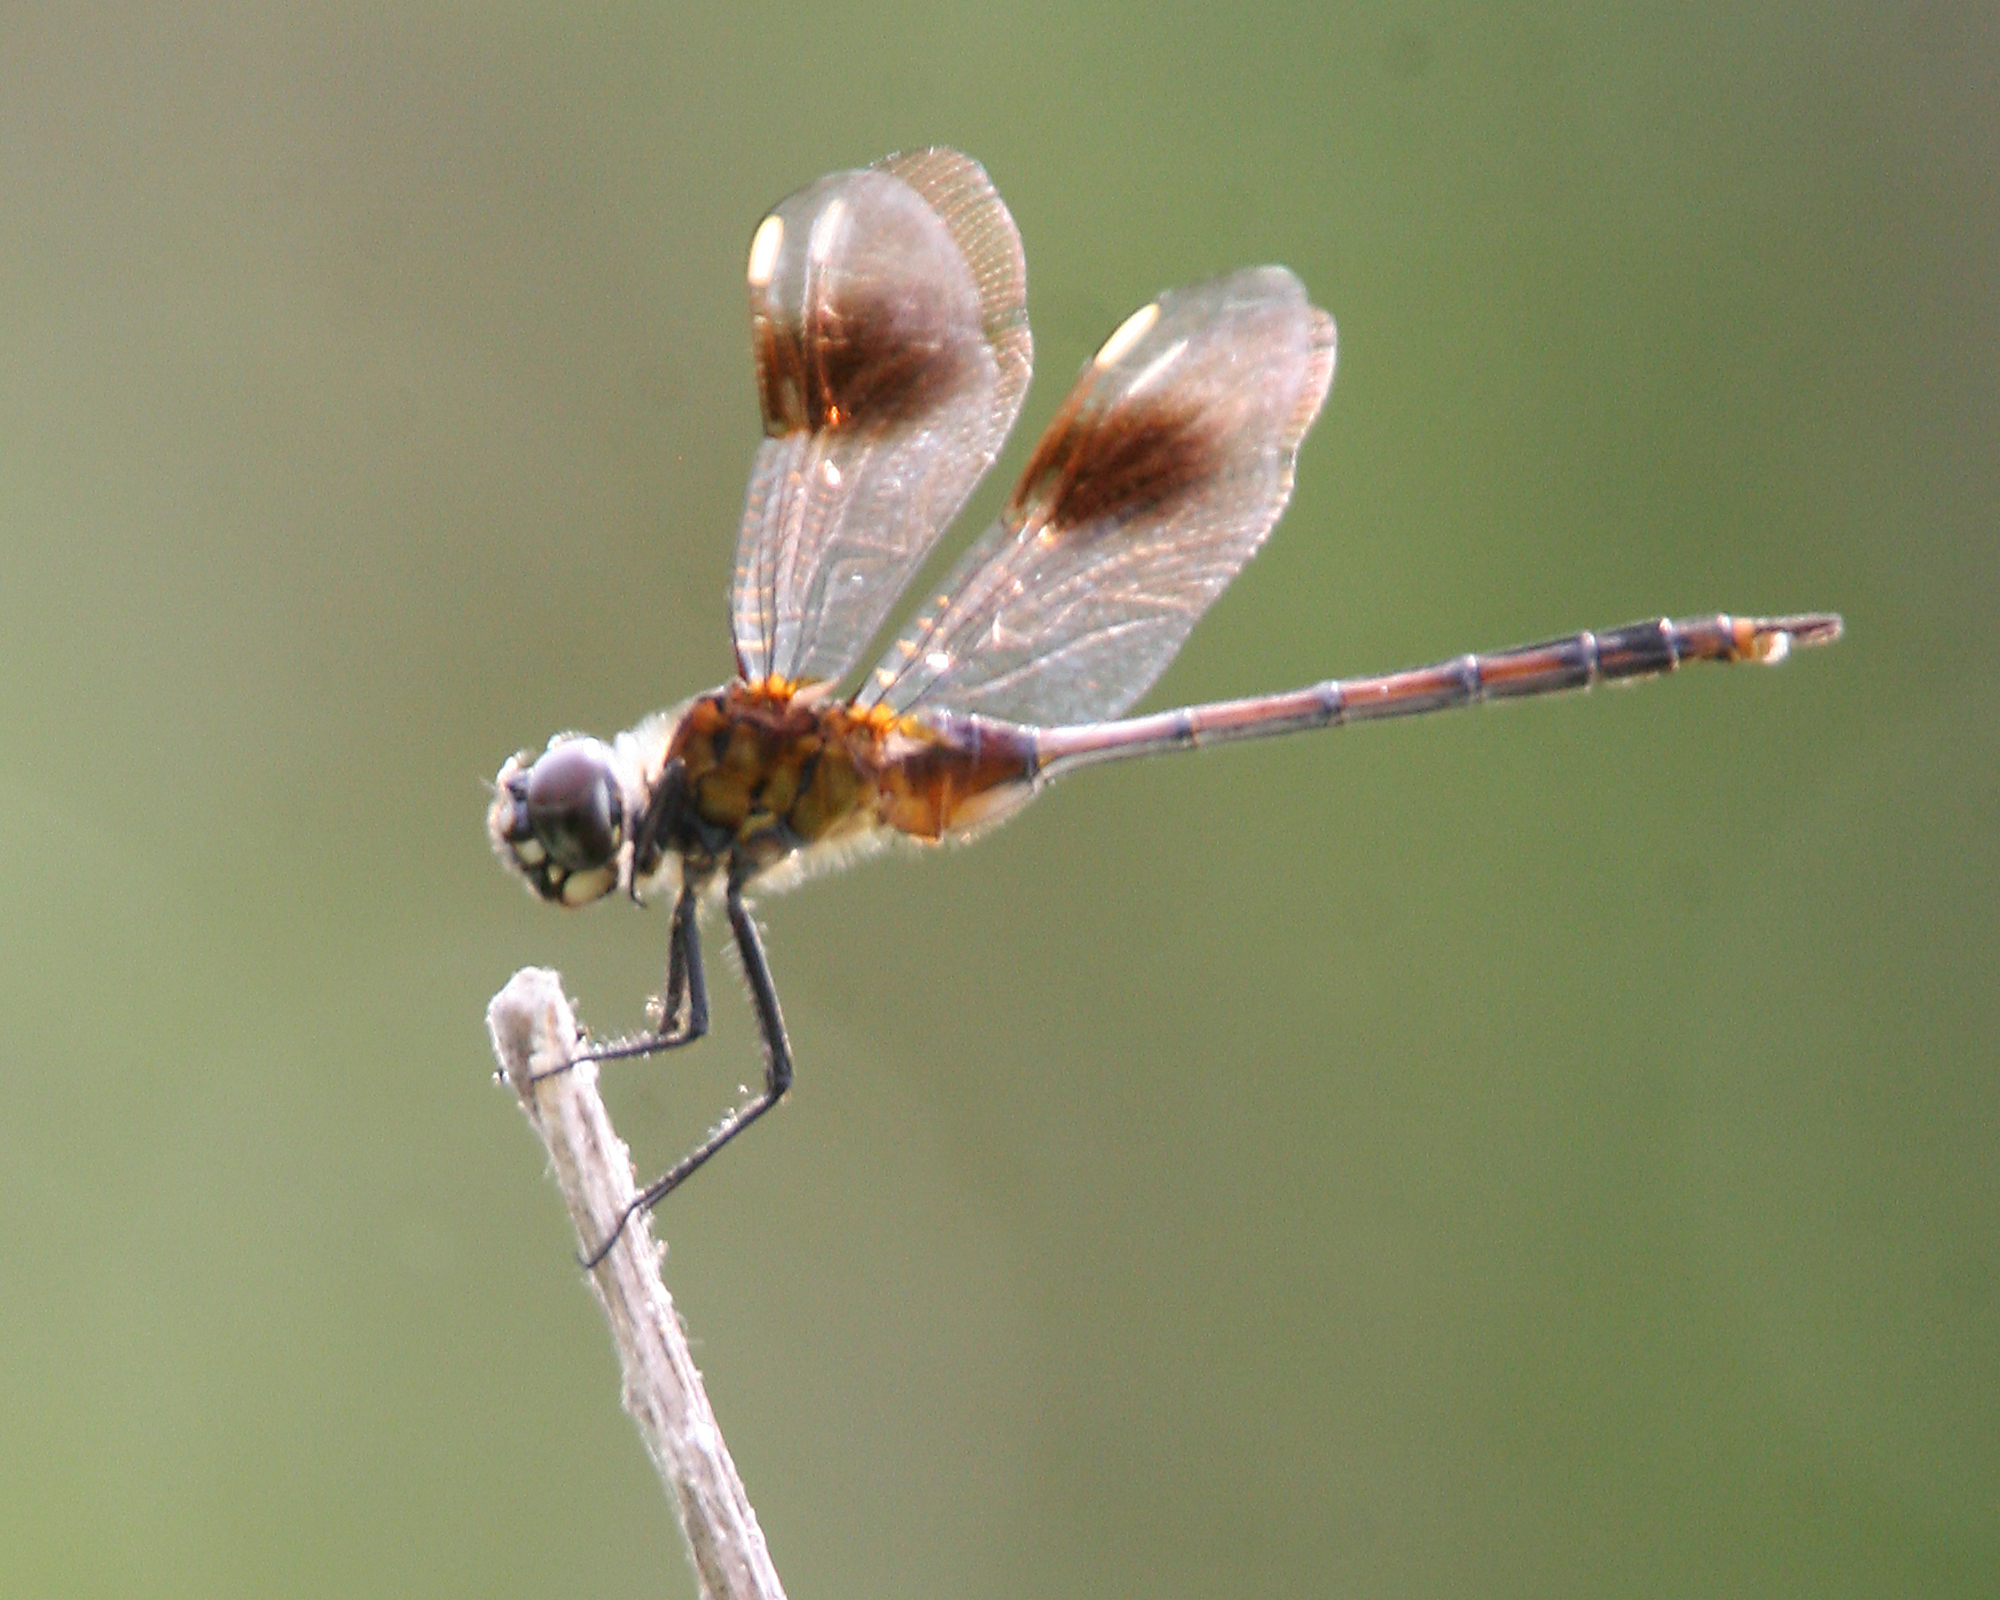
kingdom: Animalia
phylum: Arthropoda
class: Insecta
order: Odonata
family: Libellulidae
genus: Brachymesia
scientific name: Brachymesia gravida
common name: Four-spotted pennant
